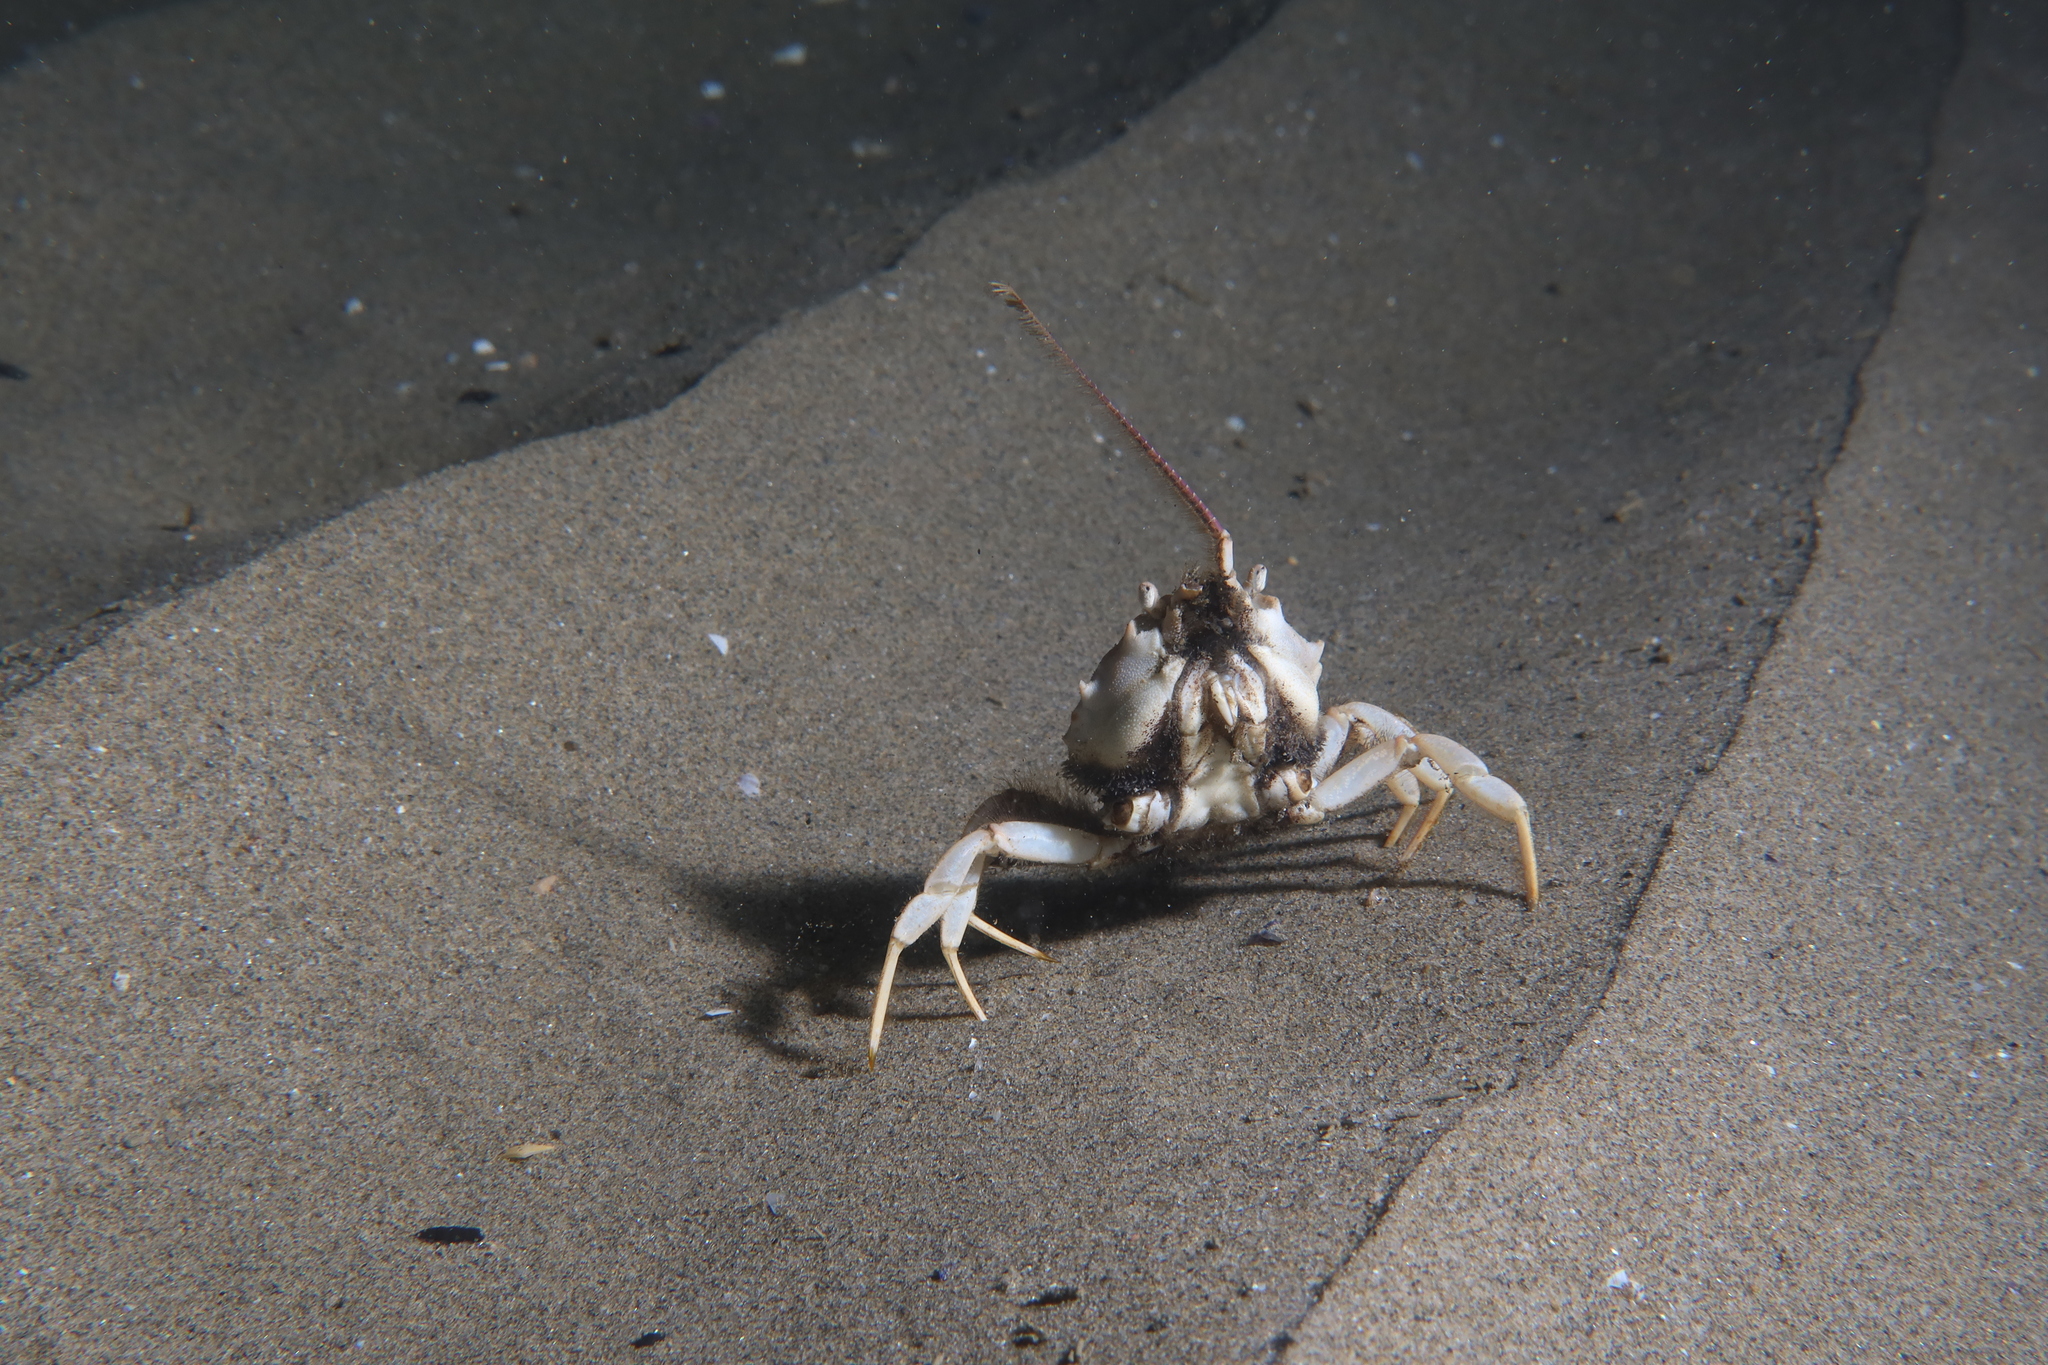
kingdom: Animalia
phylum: Arthropoda
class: Malacostraca
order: Decapoda
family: Corystidae
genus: Corystes
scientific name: Corystes cassivelaunus
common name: Masked crab
